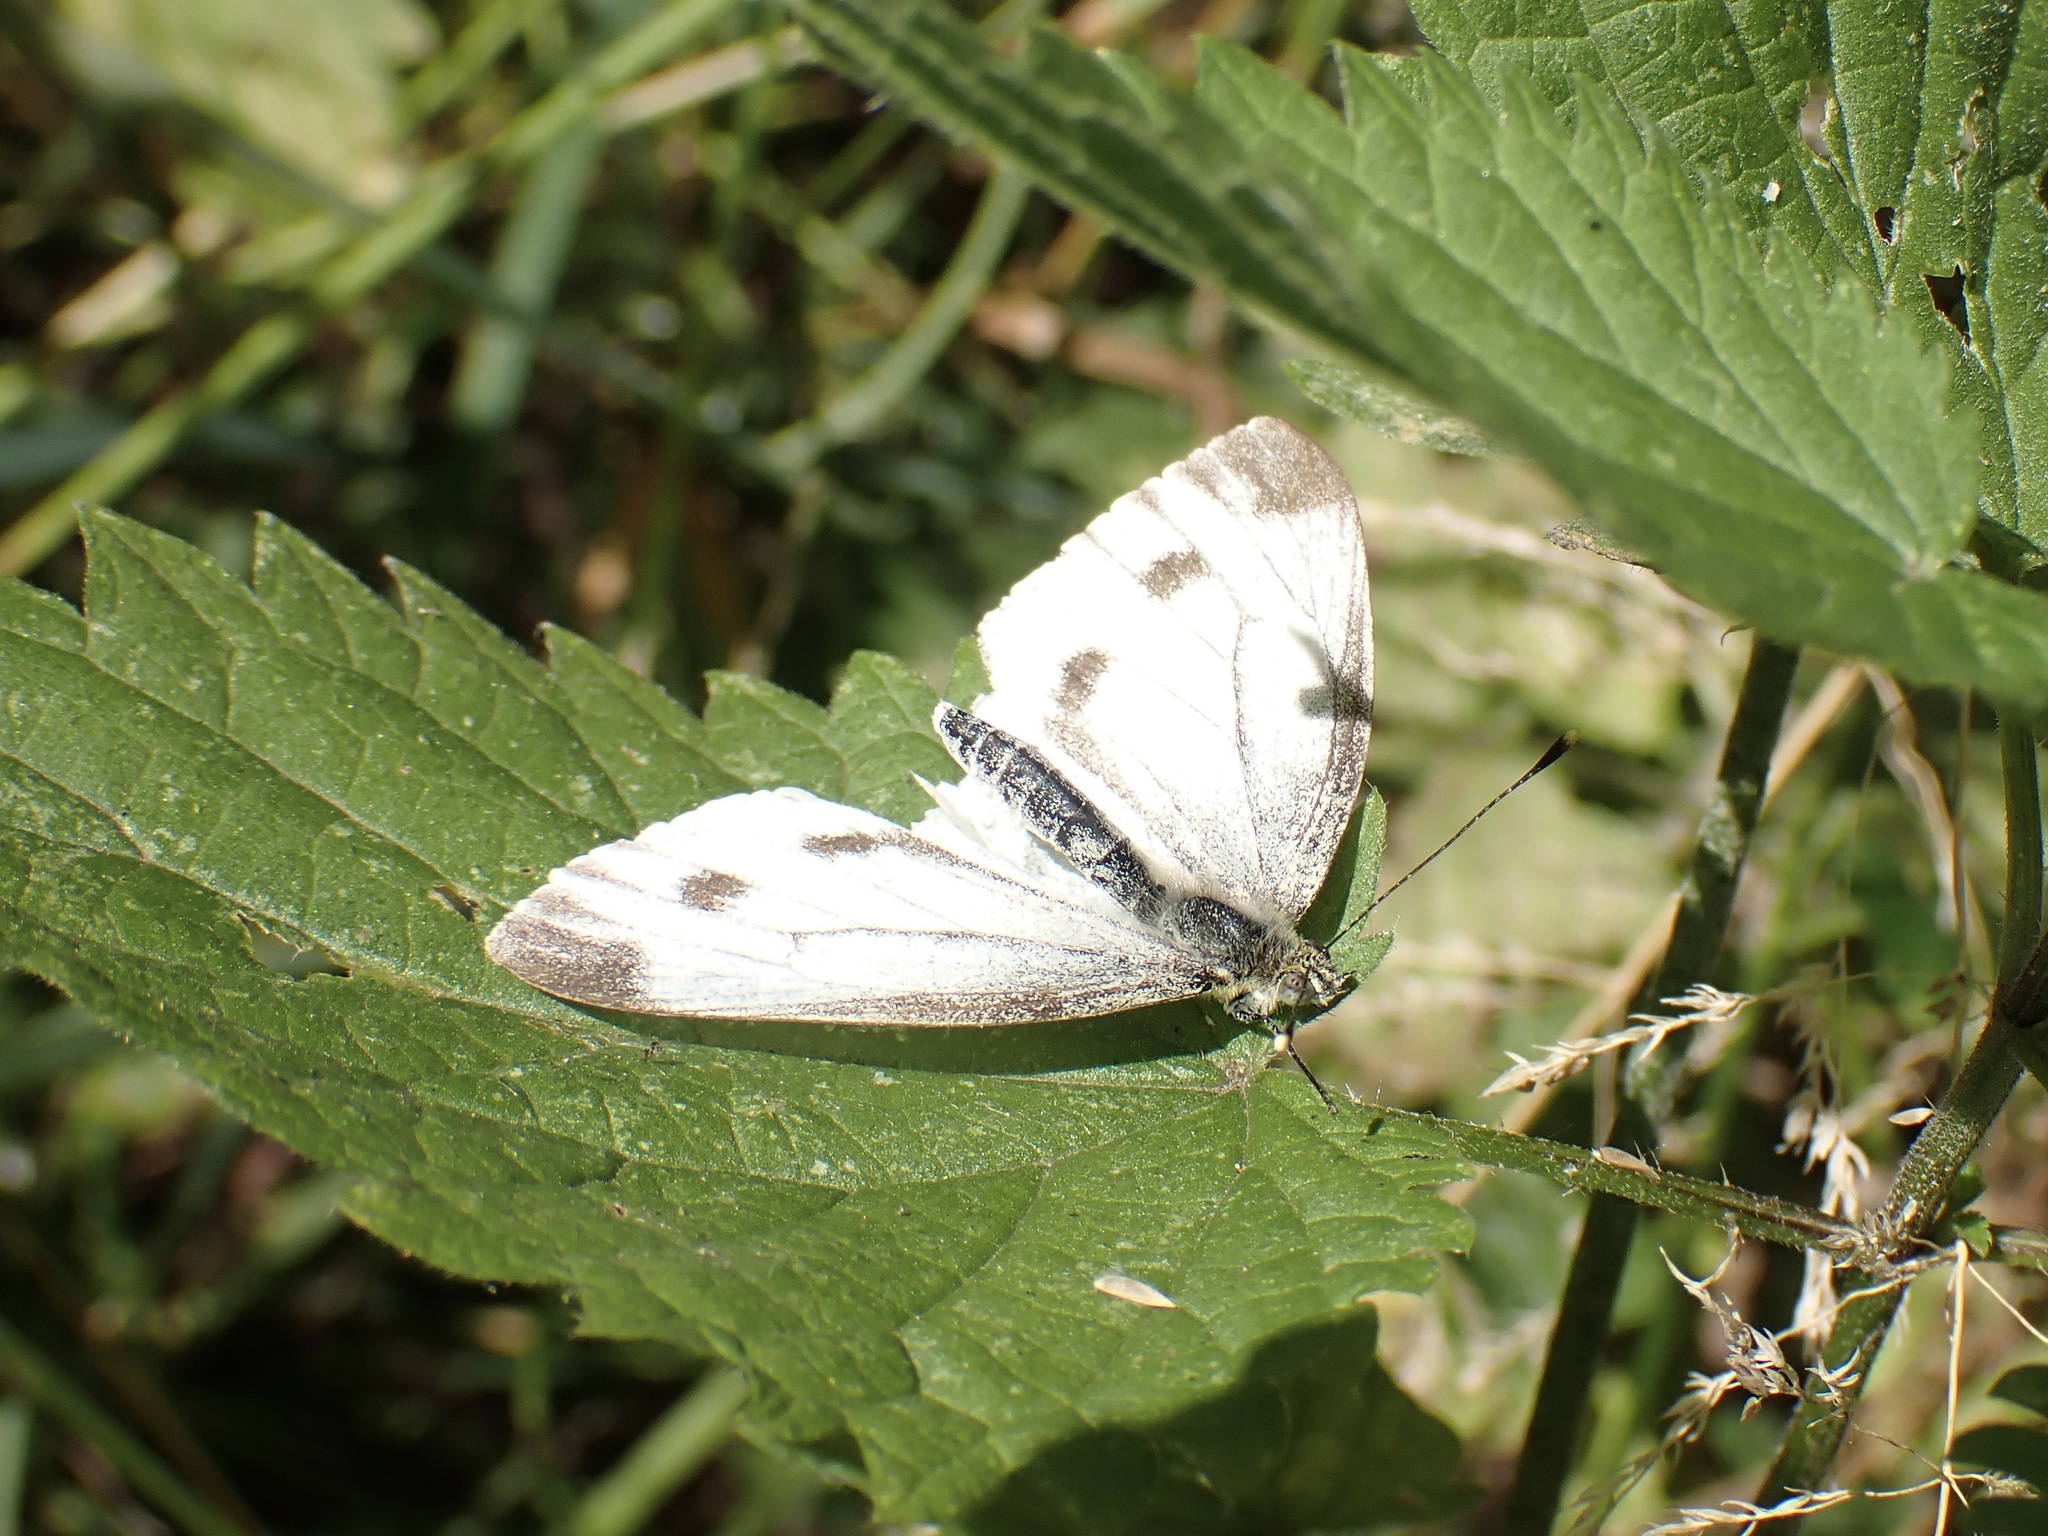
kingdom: Animalia
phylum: Arthropoda
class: Insecta
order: Lepidoptera
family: Pieridae
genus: Pieris
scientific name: Pieris napi
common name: Green-veined white
